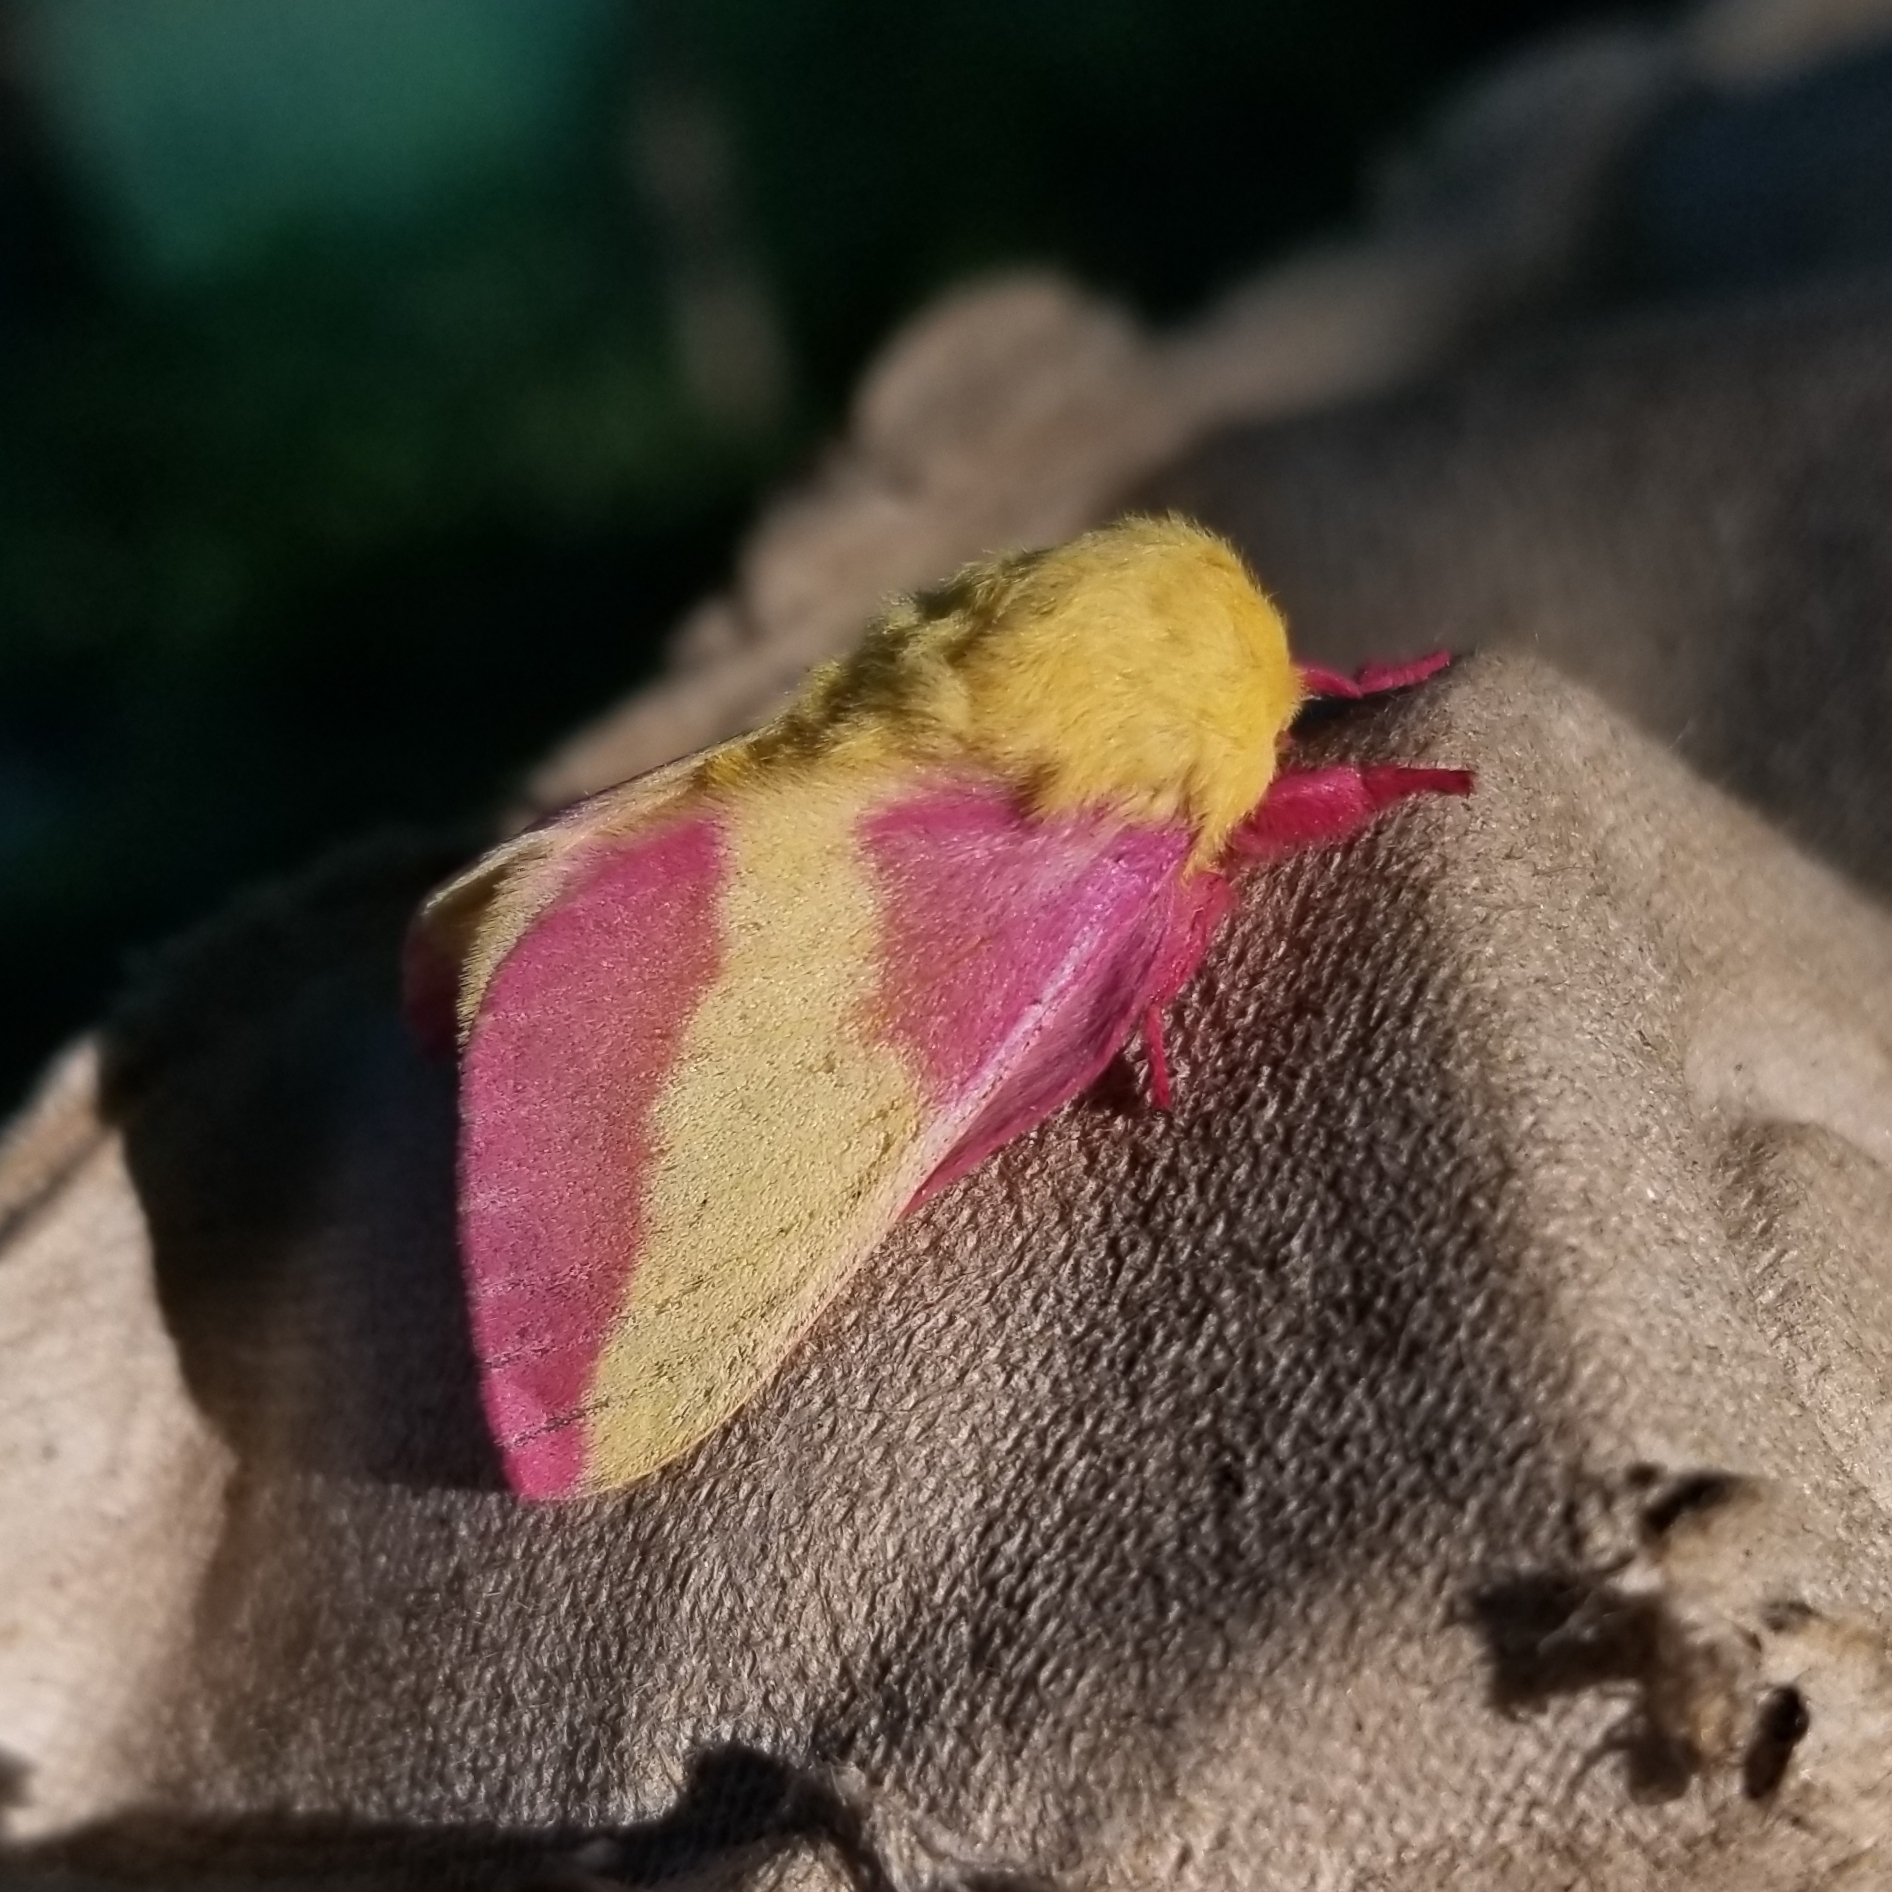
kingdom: Animalia
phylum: Arthropoda
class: Insecta
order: Lepidoptera
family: Saturniidae
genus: Dryocampa
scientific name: Dryocampa rubicunda
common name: Rosy maple moth
